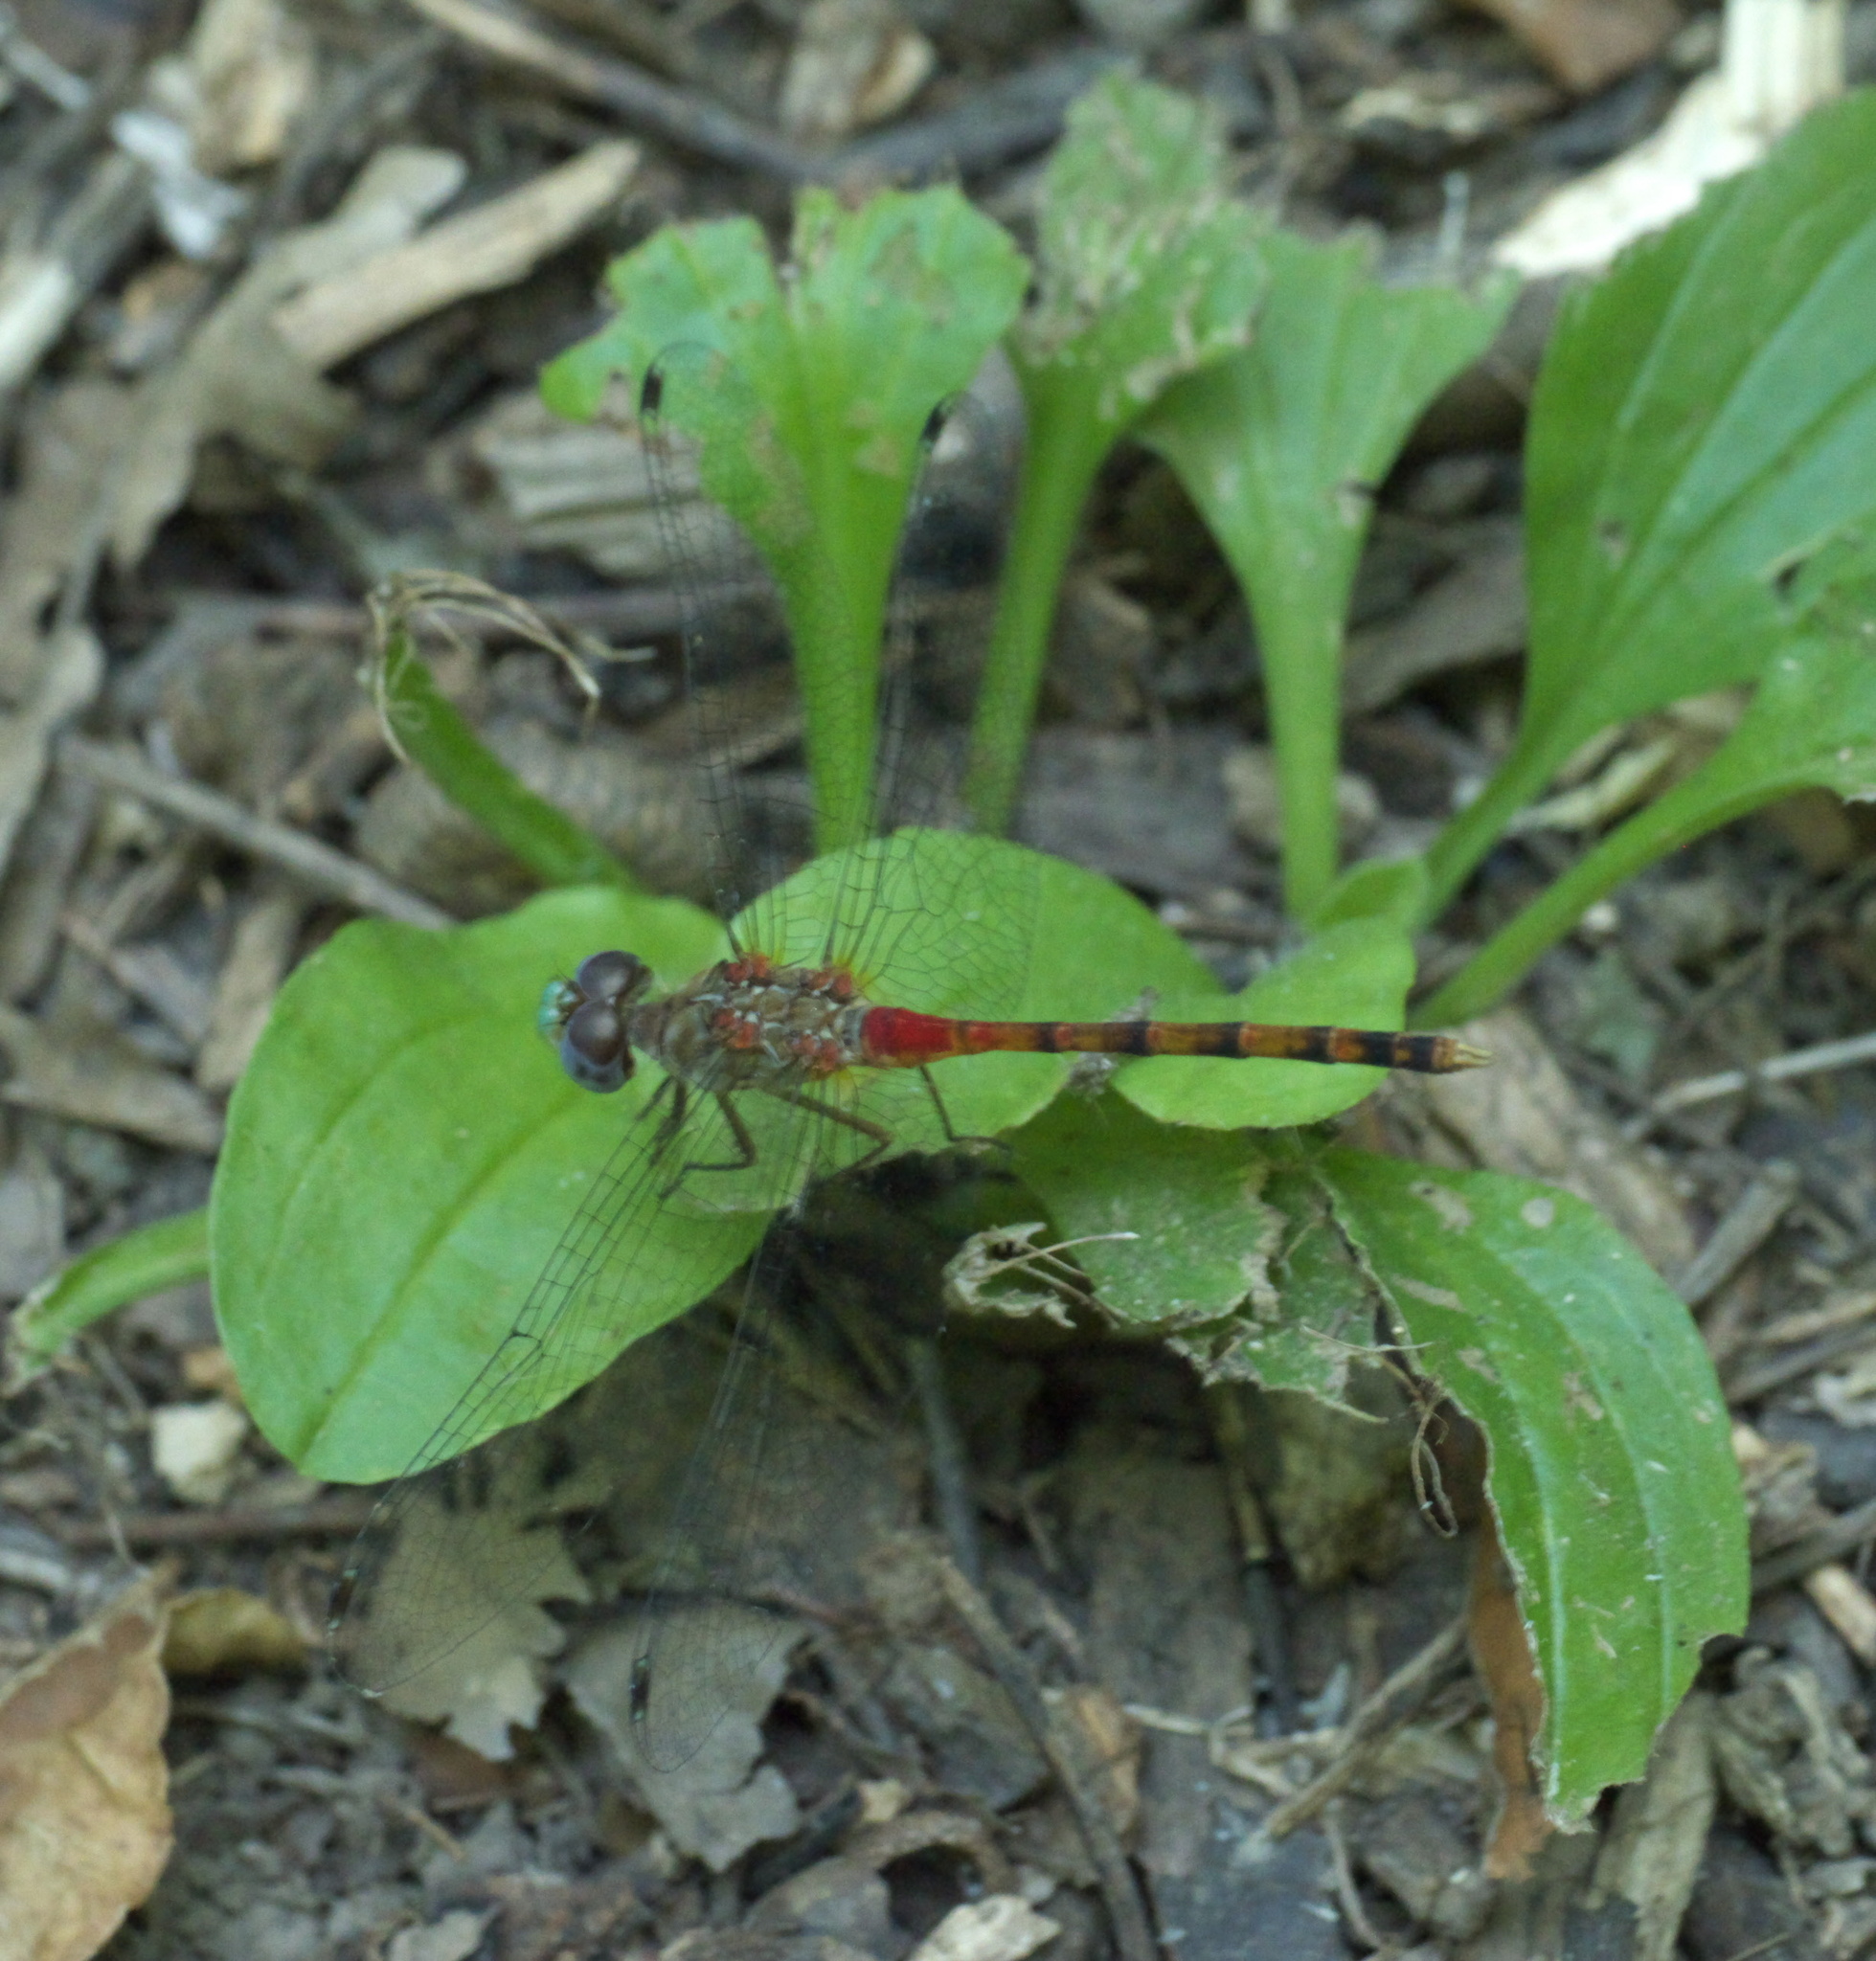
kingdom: Animalia
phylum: Arthropoda
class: Insecta
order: Odonata
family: Libellulidae
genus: Sympetrum
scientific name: Sympetrum ambiguum
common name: Blue-faced meadowhawk
